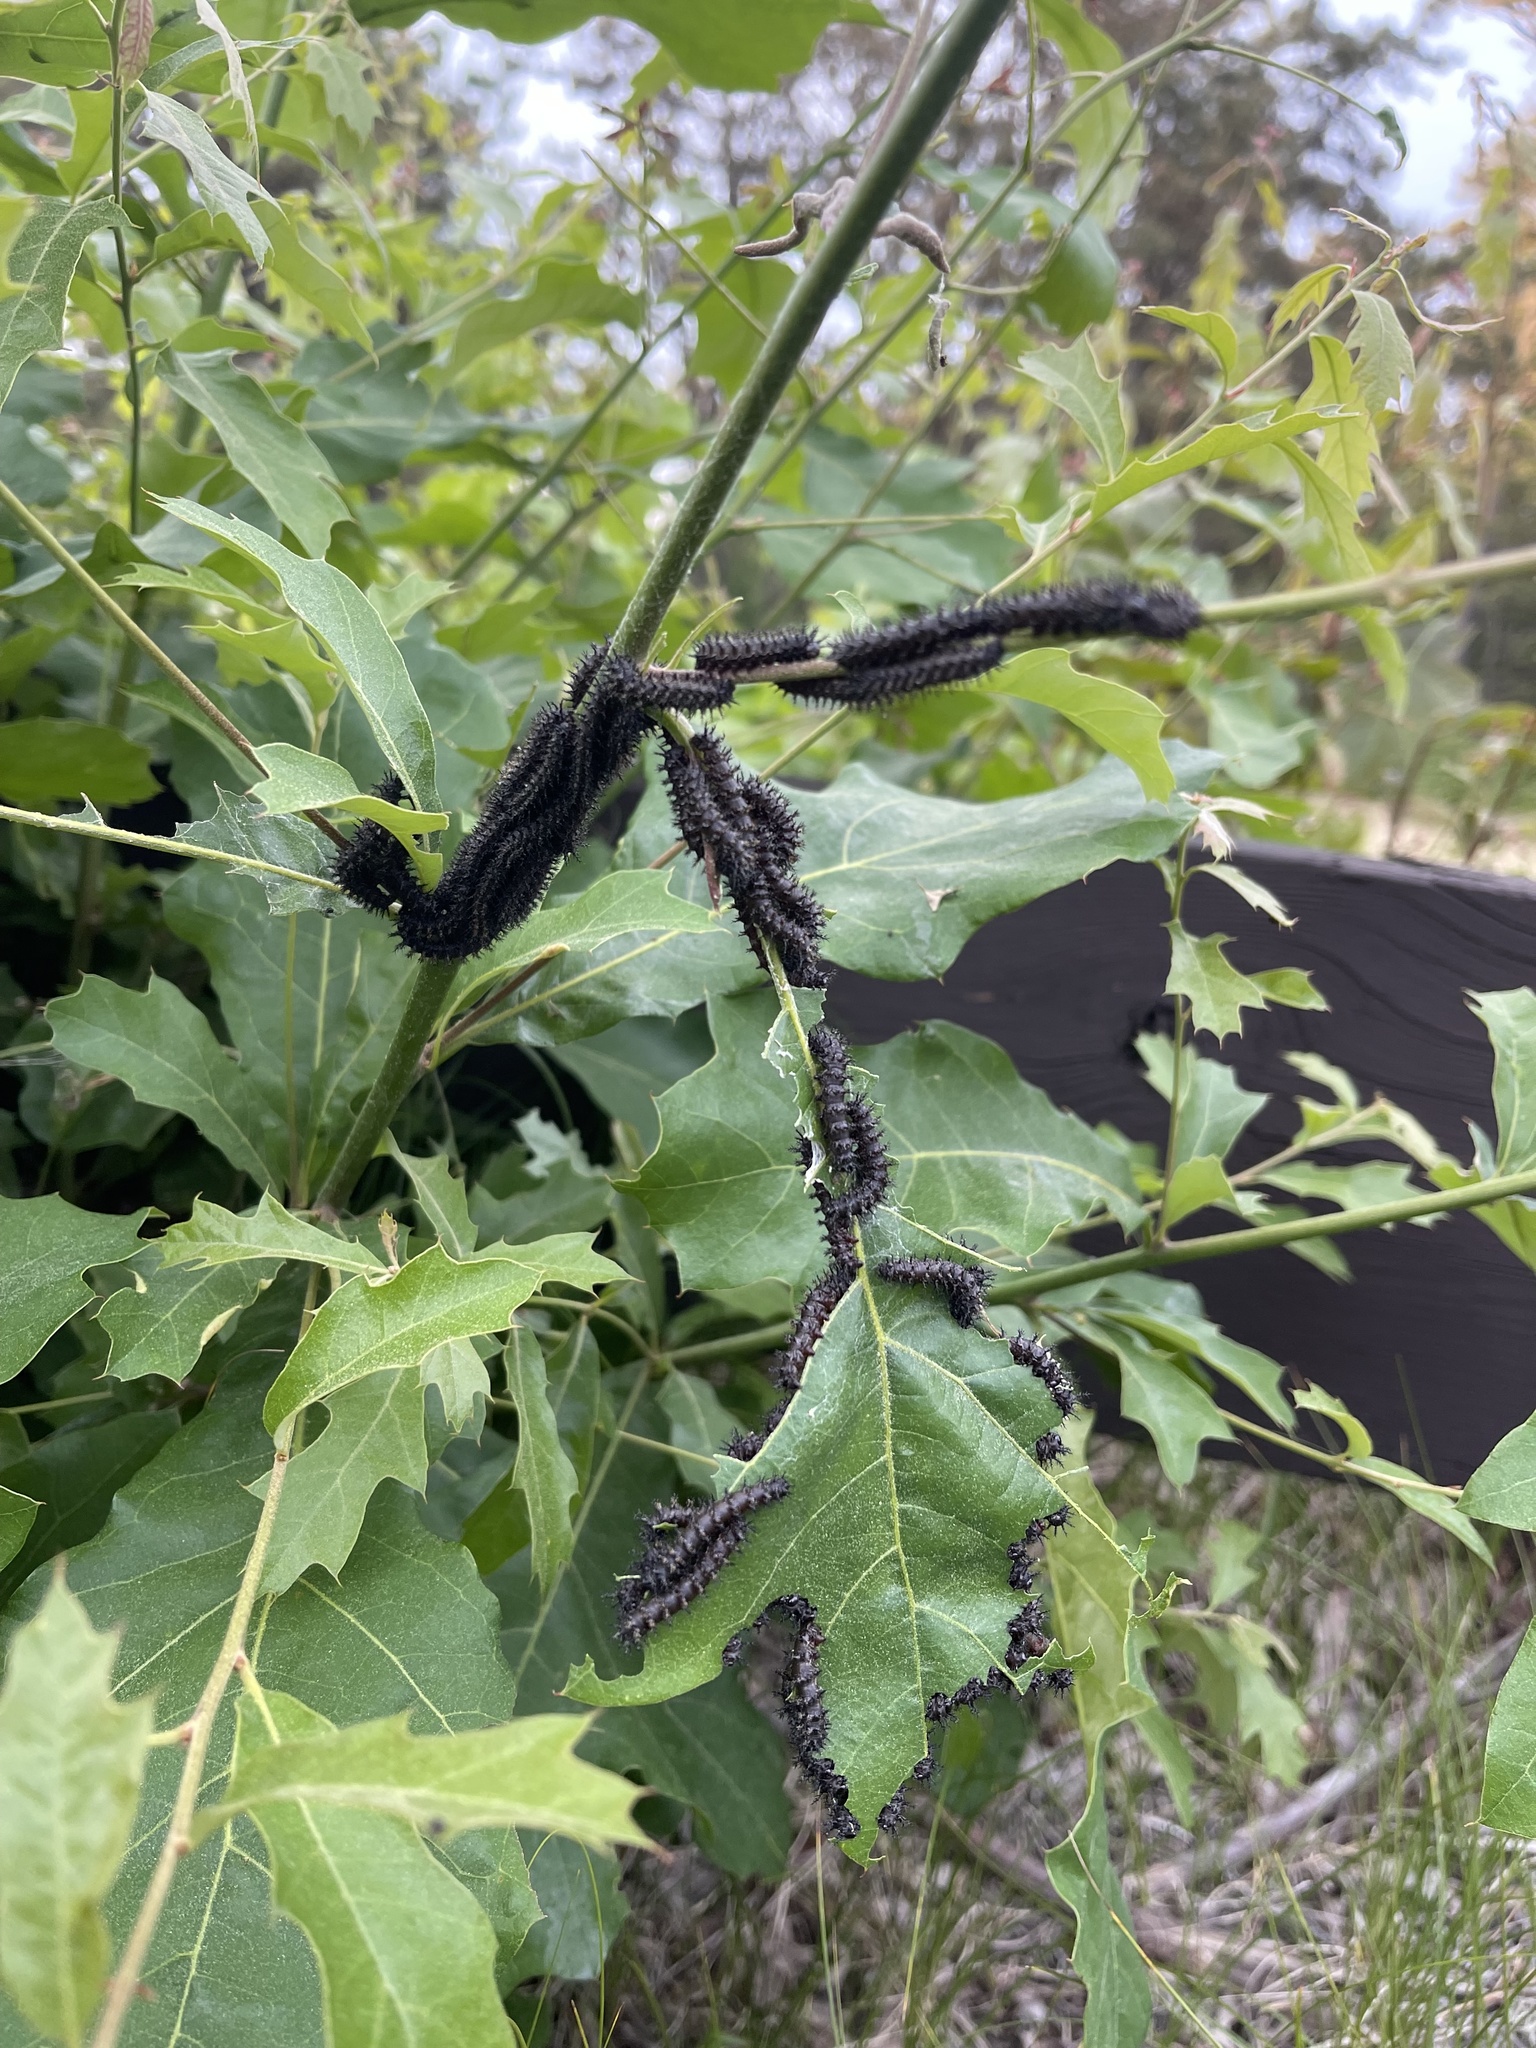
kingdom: Animalia
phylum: Arthropoda
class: Insecta
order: Lepidoptera
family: Saturniidae
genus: Hemileuca
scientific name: Hemileuca maia
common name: Eastern buckmoth
